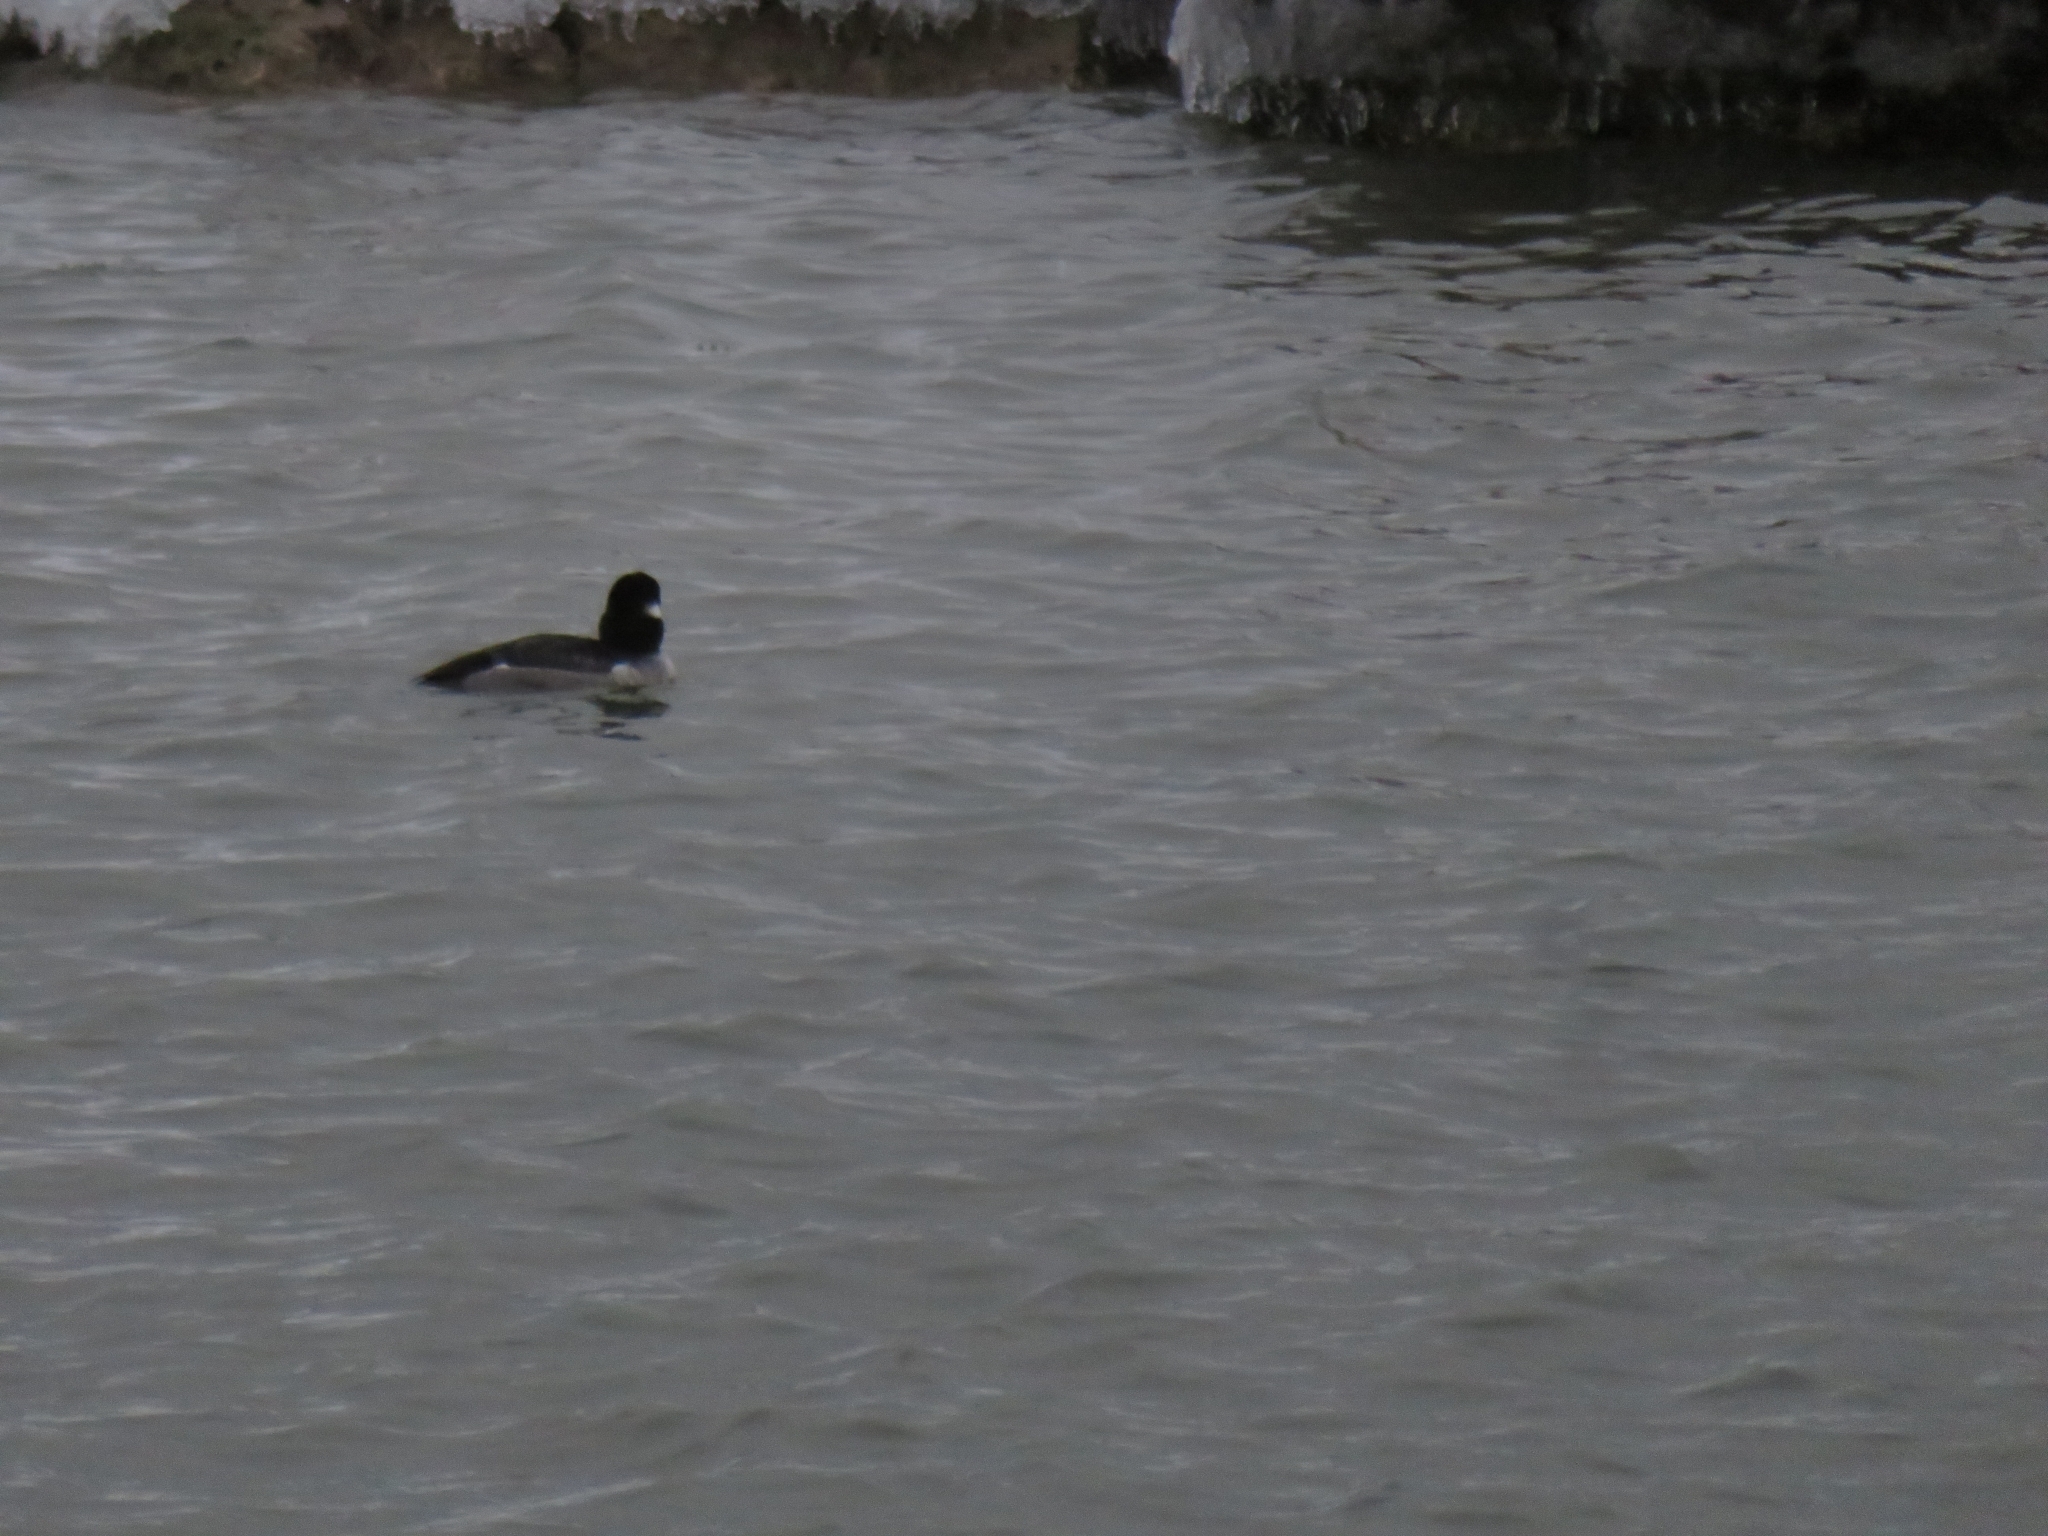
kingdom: Animalia
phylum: Chordata
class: Aves
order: Anseriformes
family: Anatidae
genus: Bucephala
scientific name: Bucephala albeola
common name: Bufflehead
